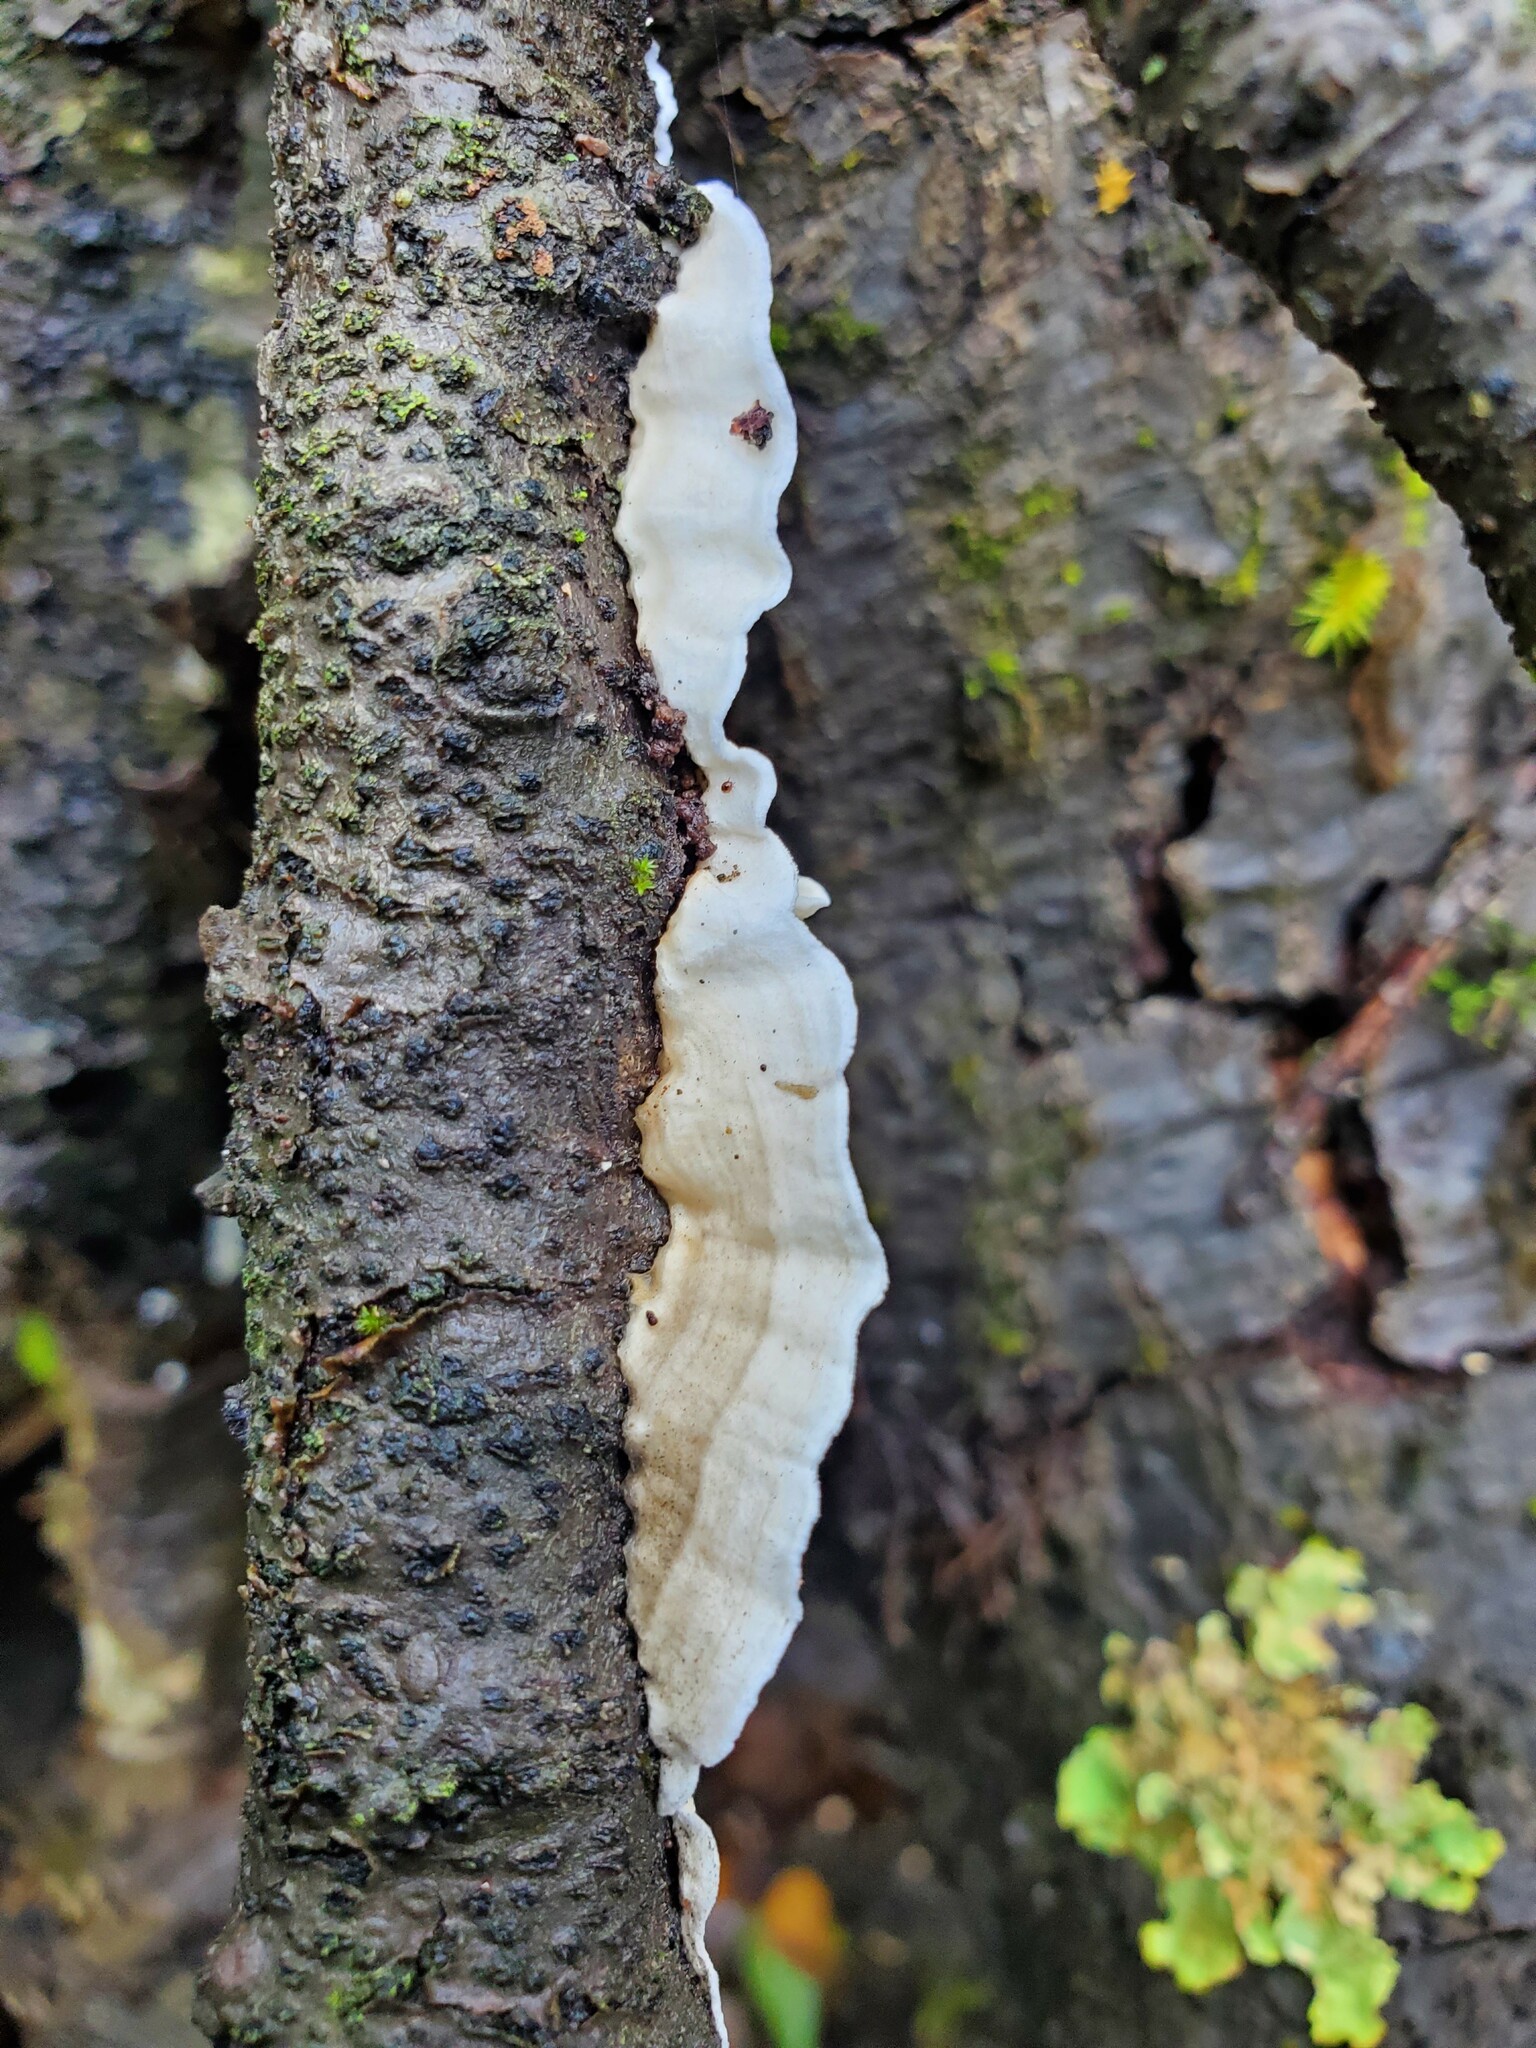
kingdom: Fungi
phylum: Basidiomycota
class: Agaricomycetes
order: Polyporales
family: Irpicaceae
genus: Byssomerulius
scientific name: Byssomerulius corium
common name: Netted crust
